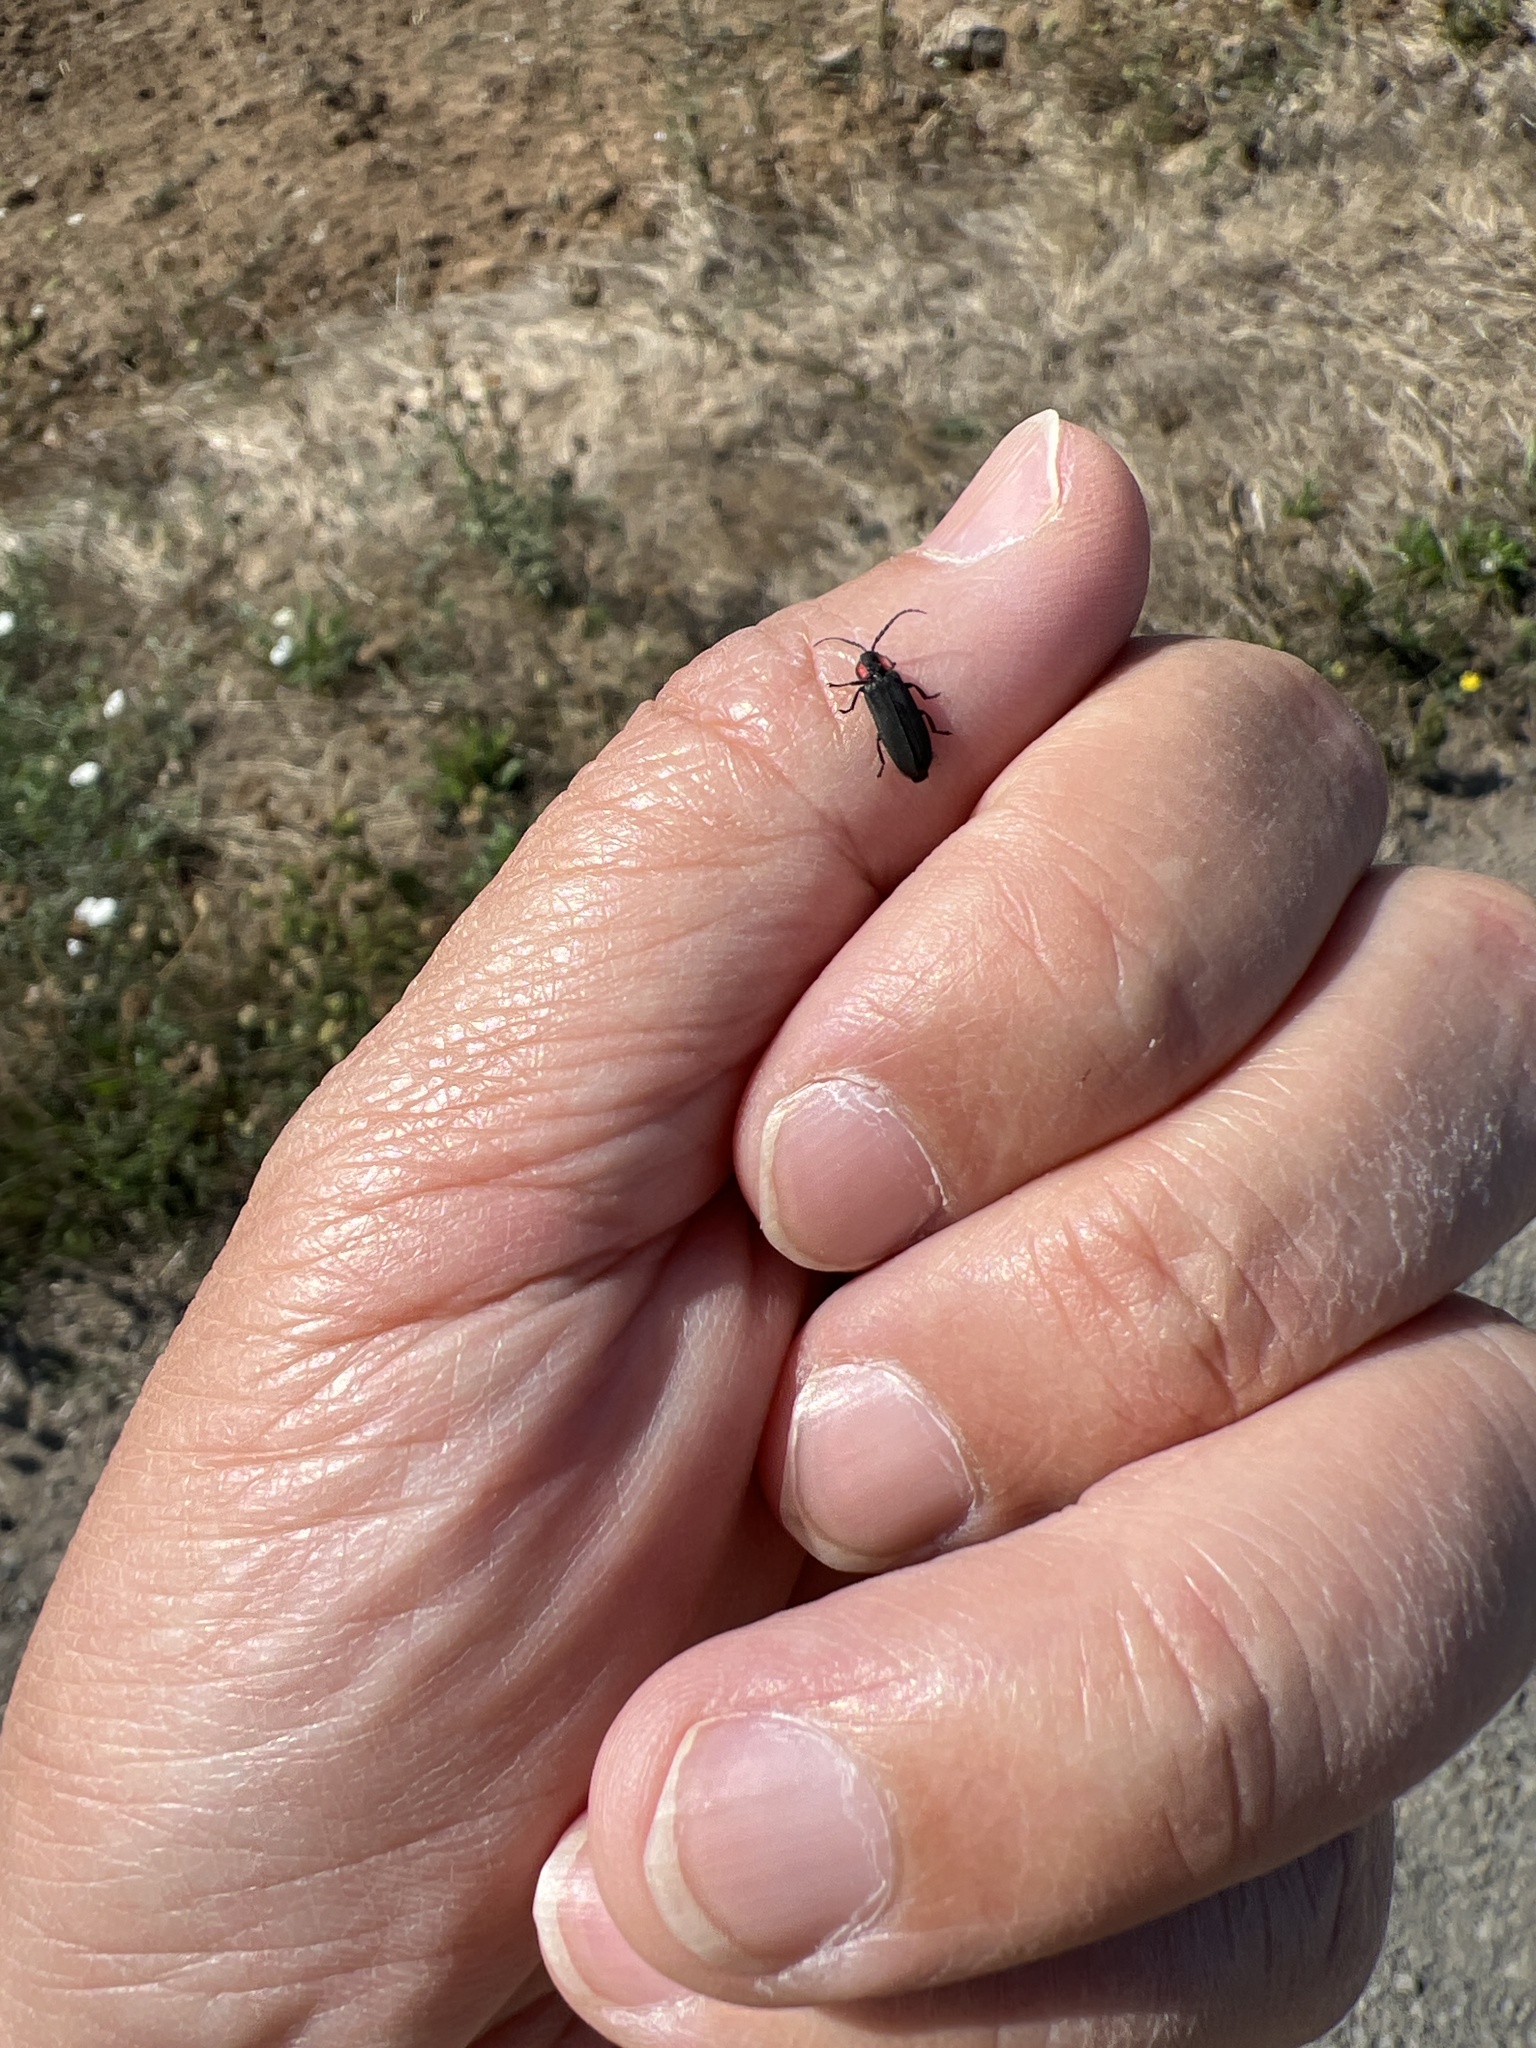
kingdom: Animalia
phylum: Arthropoda
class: Insecta
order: Coleoptera
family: Lampyridae
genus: Pyropyga
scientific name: Pyropyga nigricans
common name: Dark firefly
